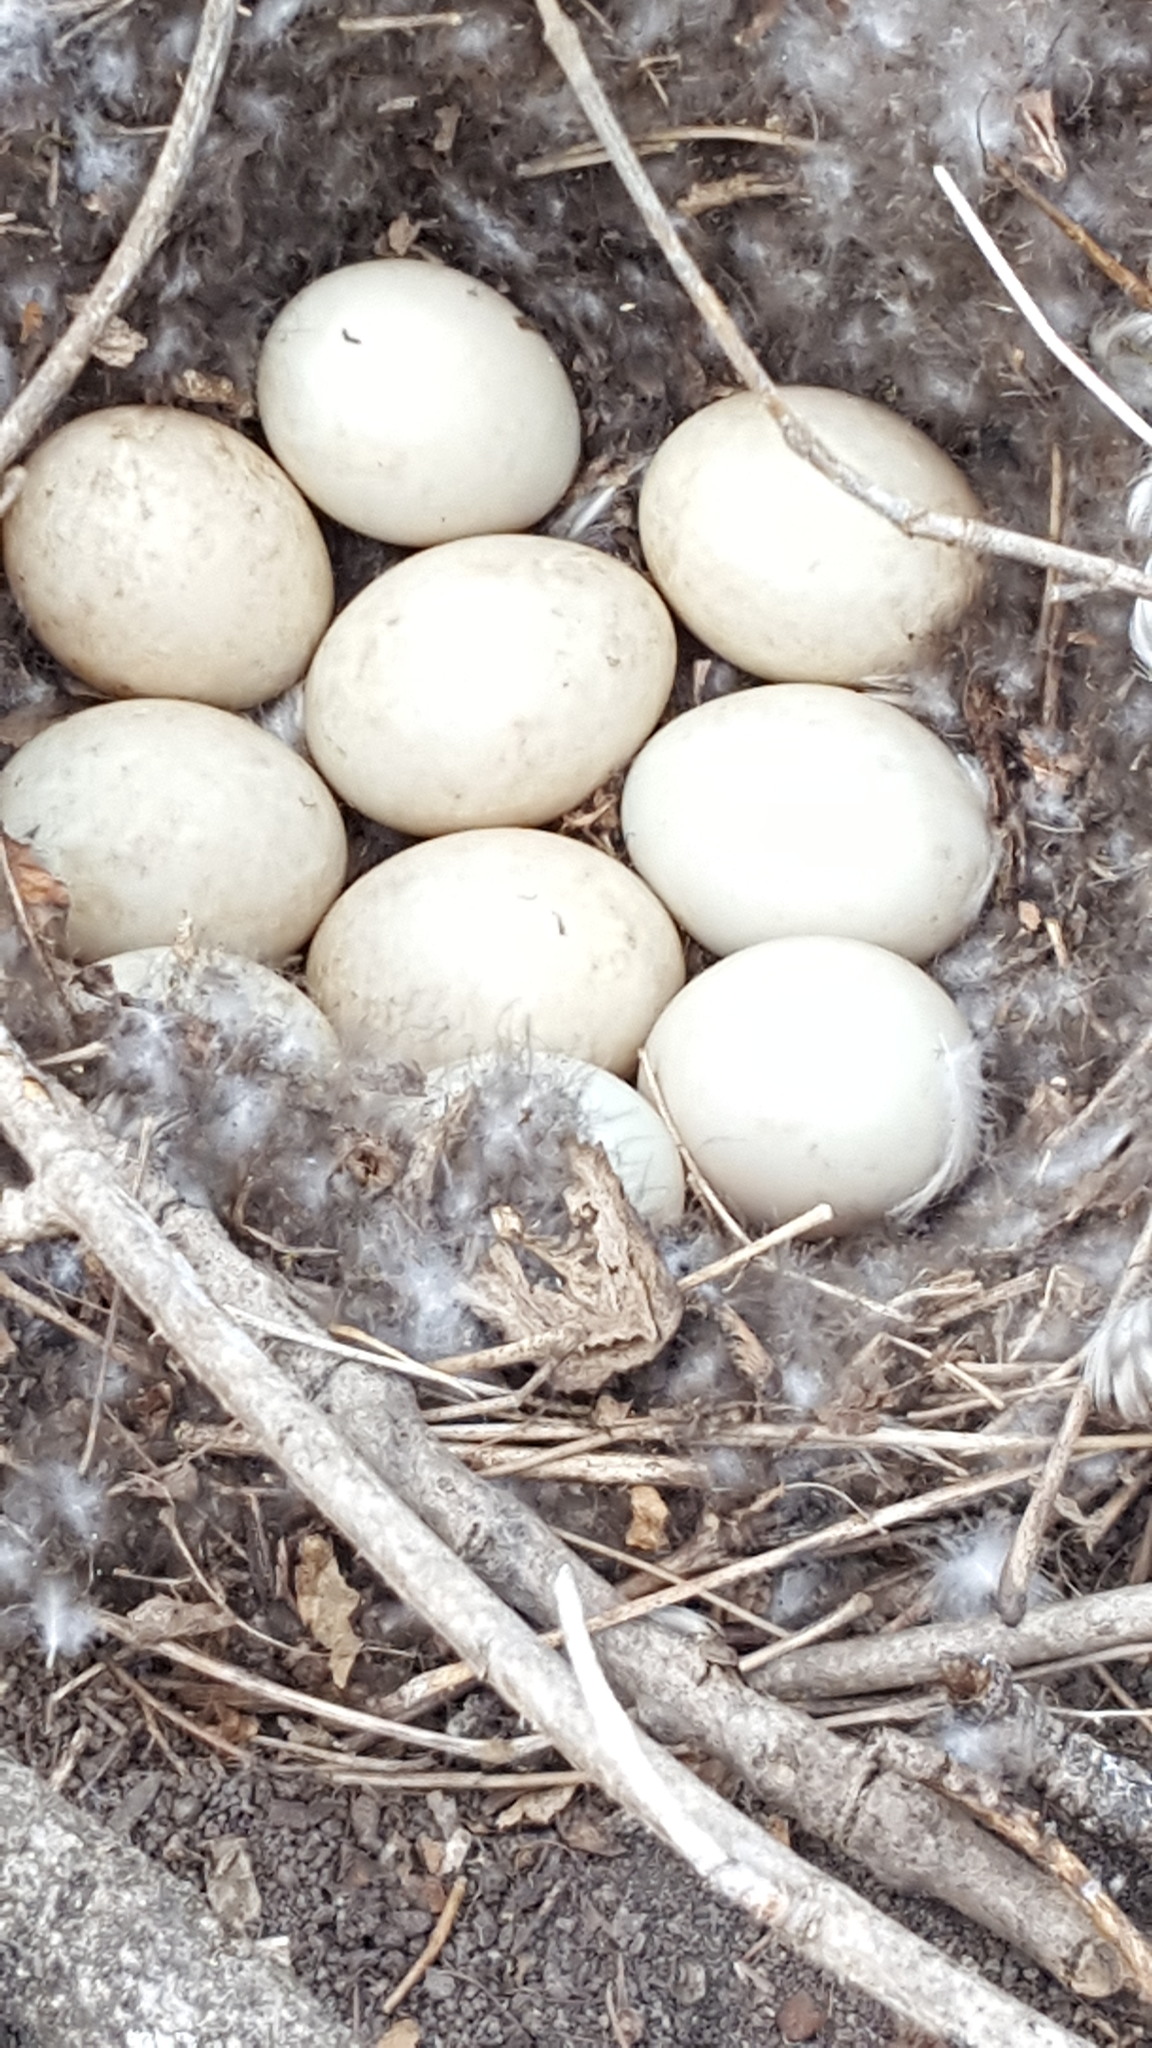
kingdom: Animalia
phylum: Chordata
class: Aves
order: Anseriformes
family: Anatidae
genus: Anas
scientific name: Anas platyrhynchos
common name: Mallard
